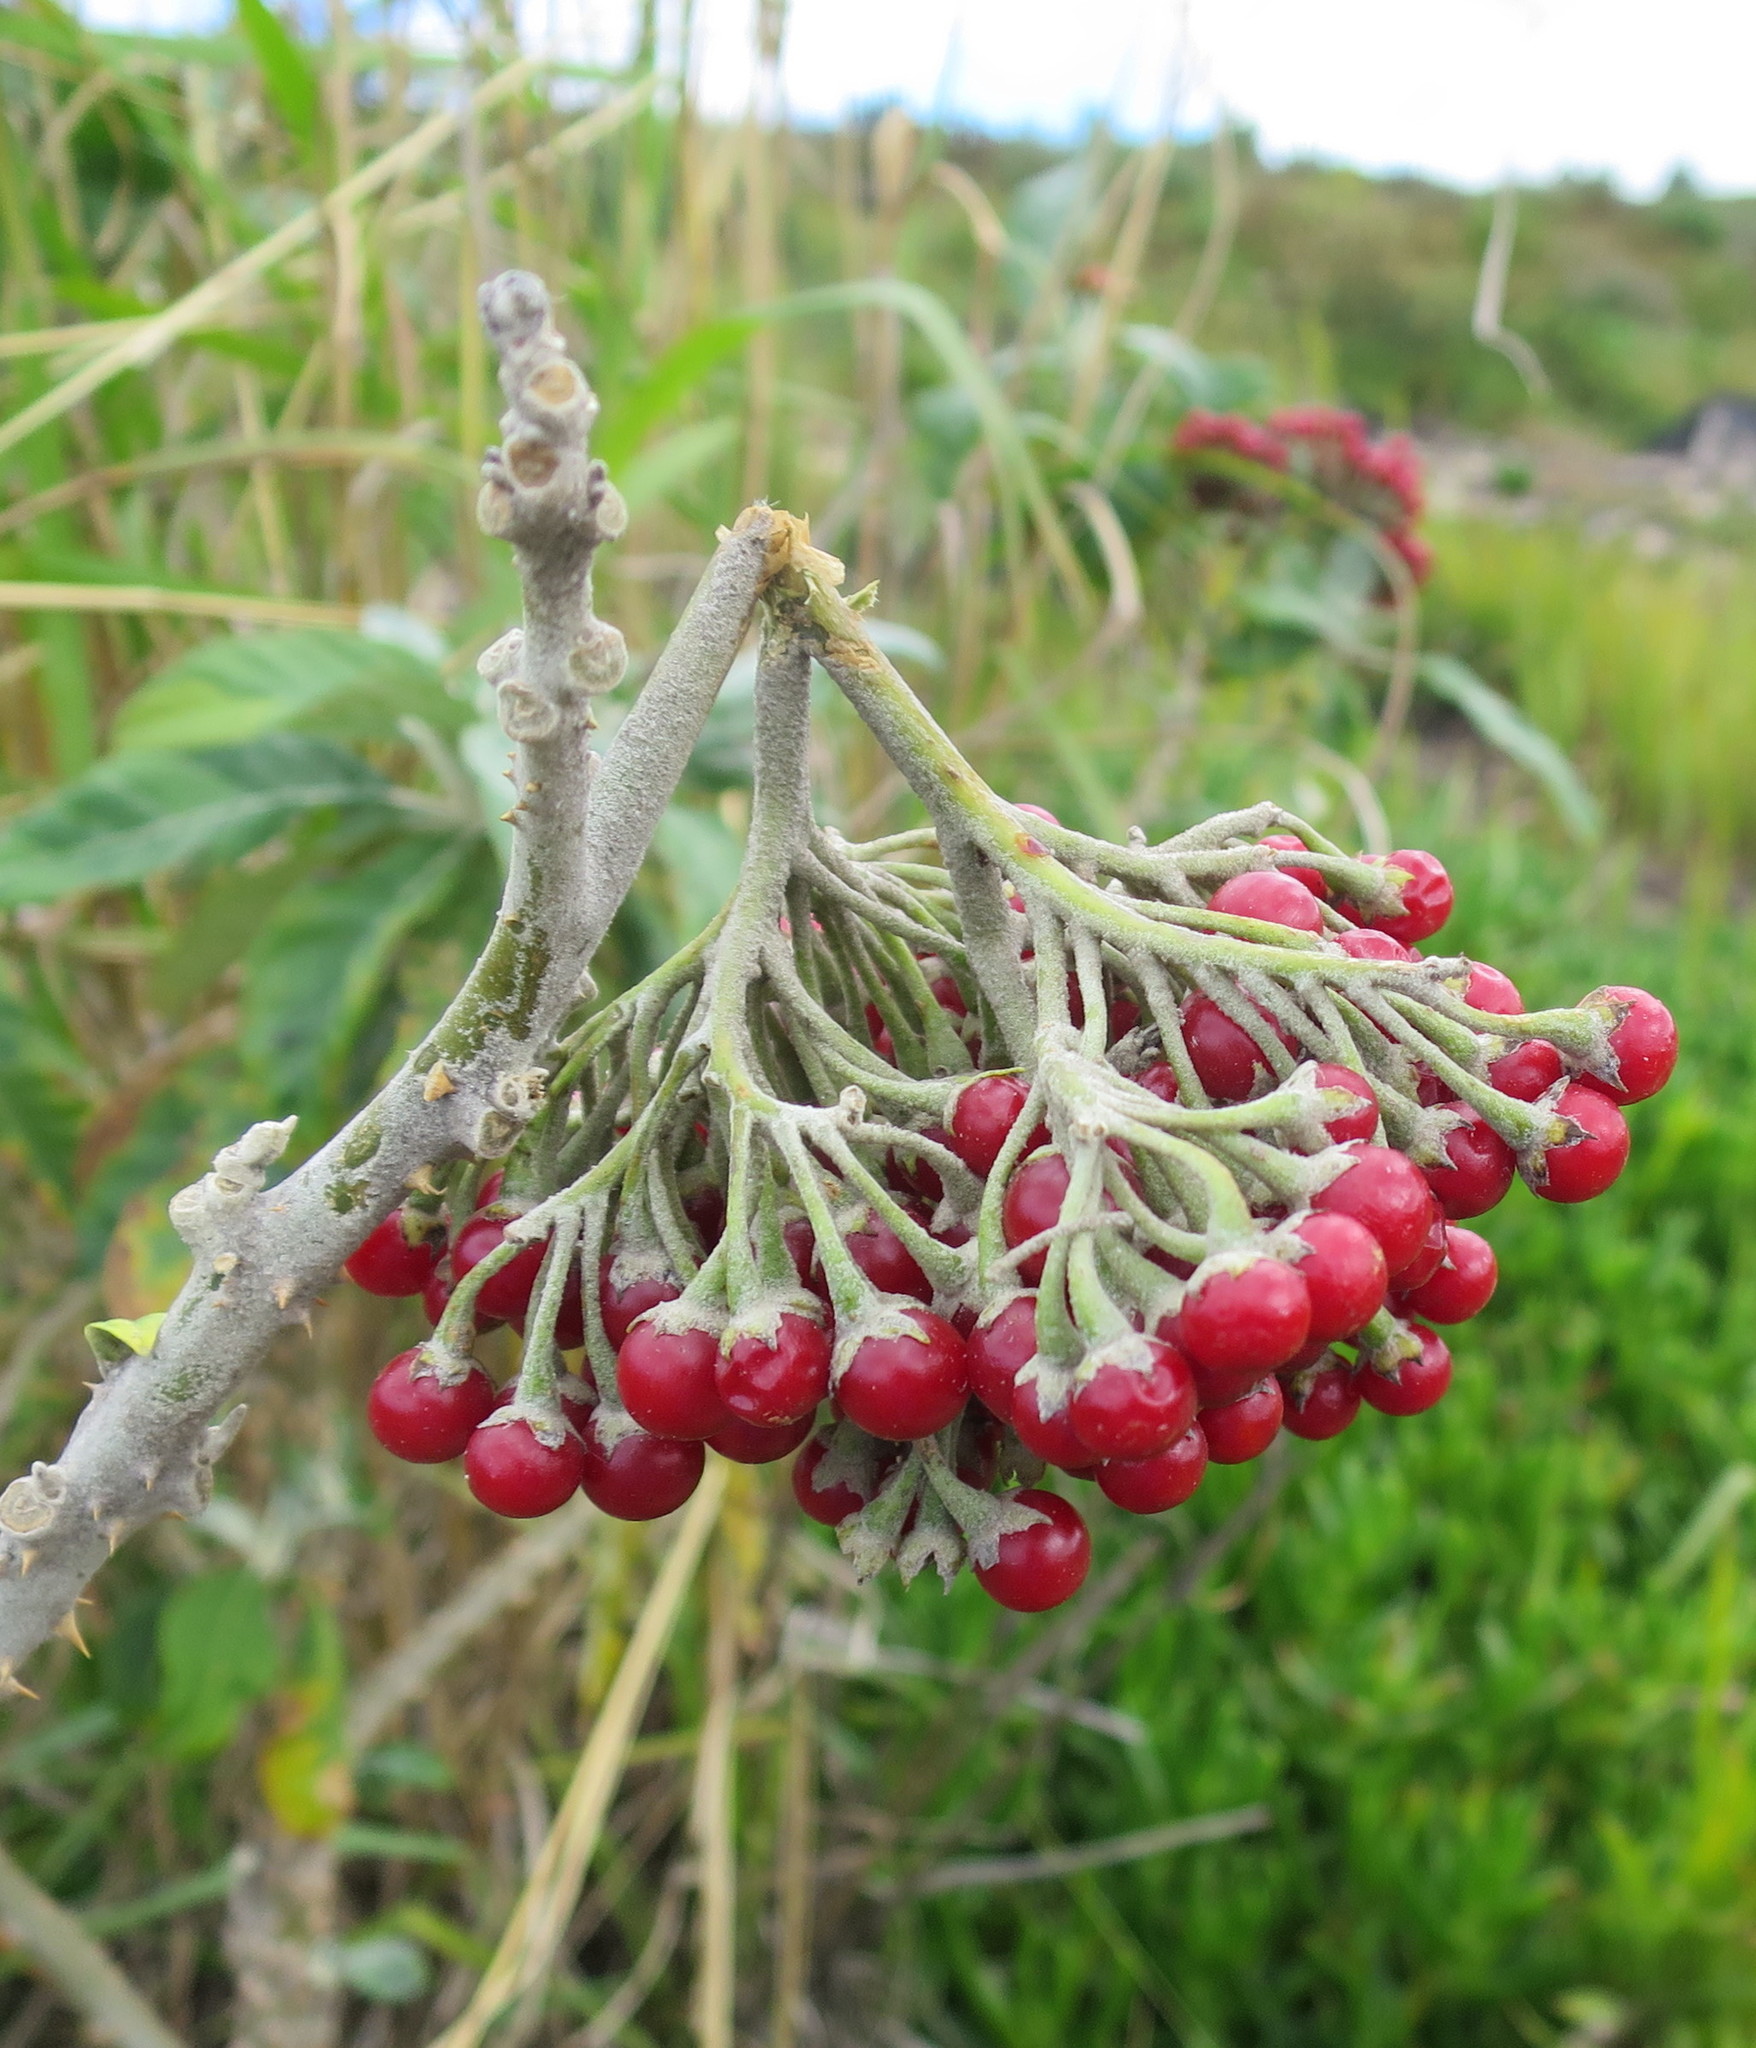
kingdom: Plantae
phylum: Tracheophyta
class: Magnoliopsida
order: Solanales
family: Solanaceae
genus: Solanum
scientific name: Solanum giganteum
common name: Healing-leaf-tree
